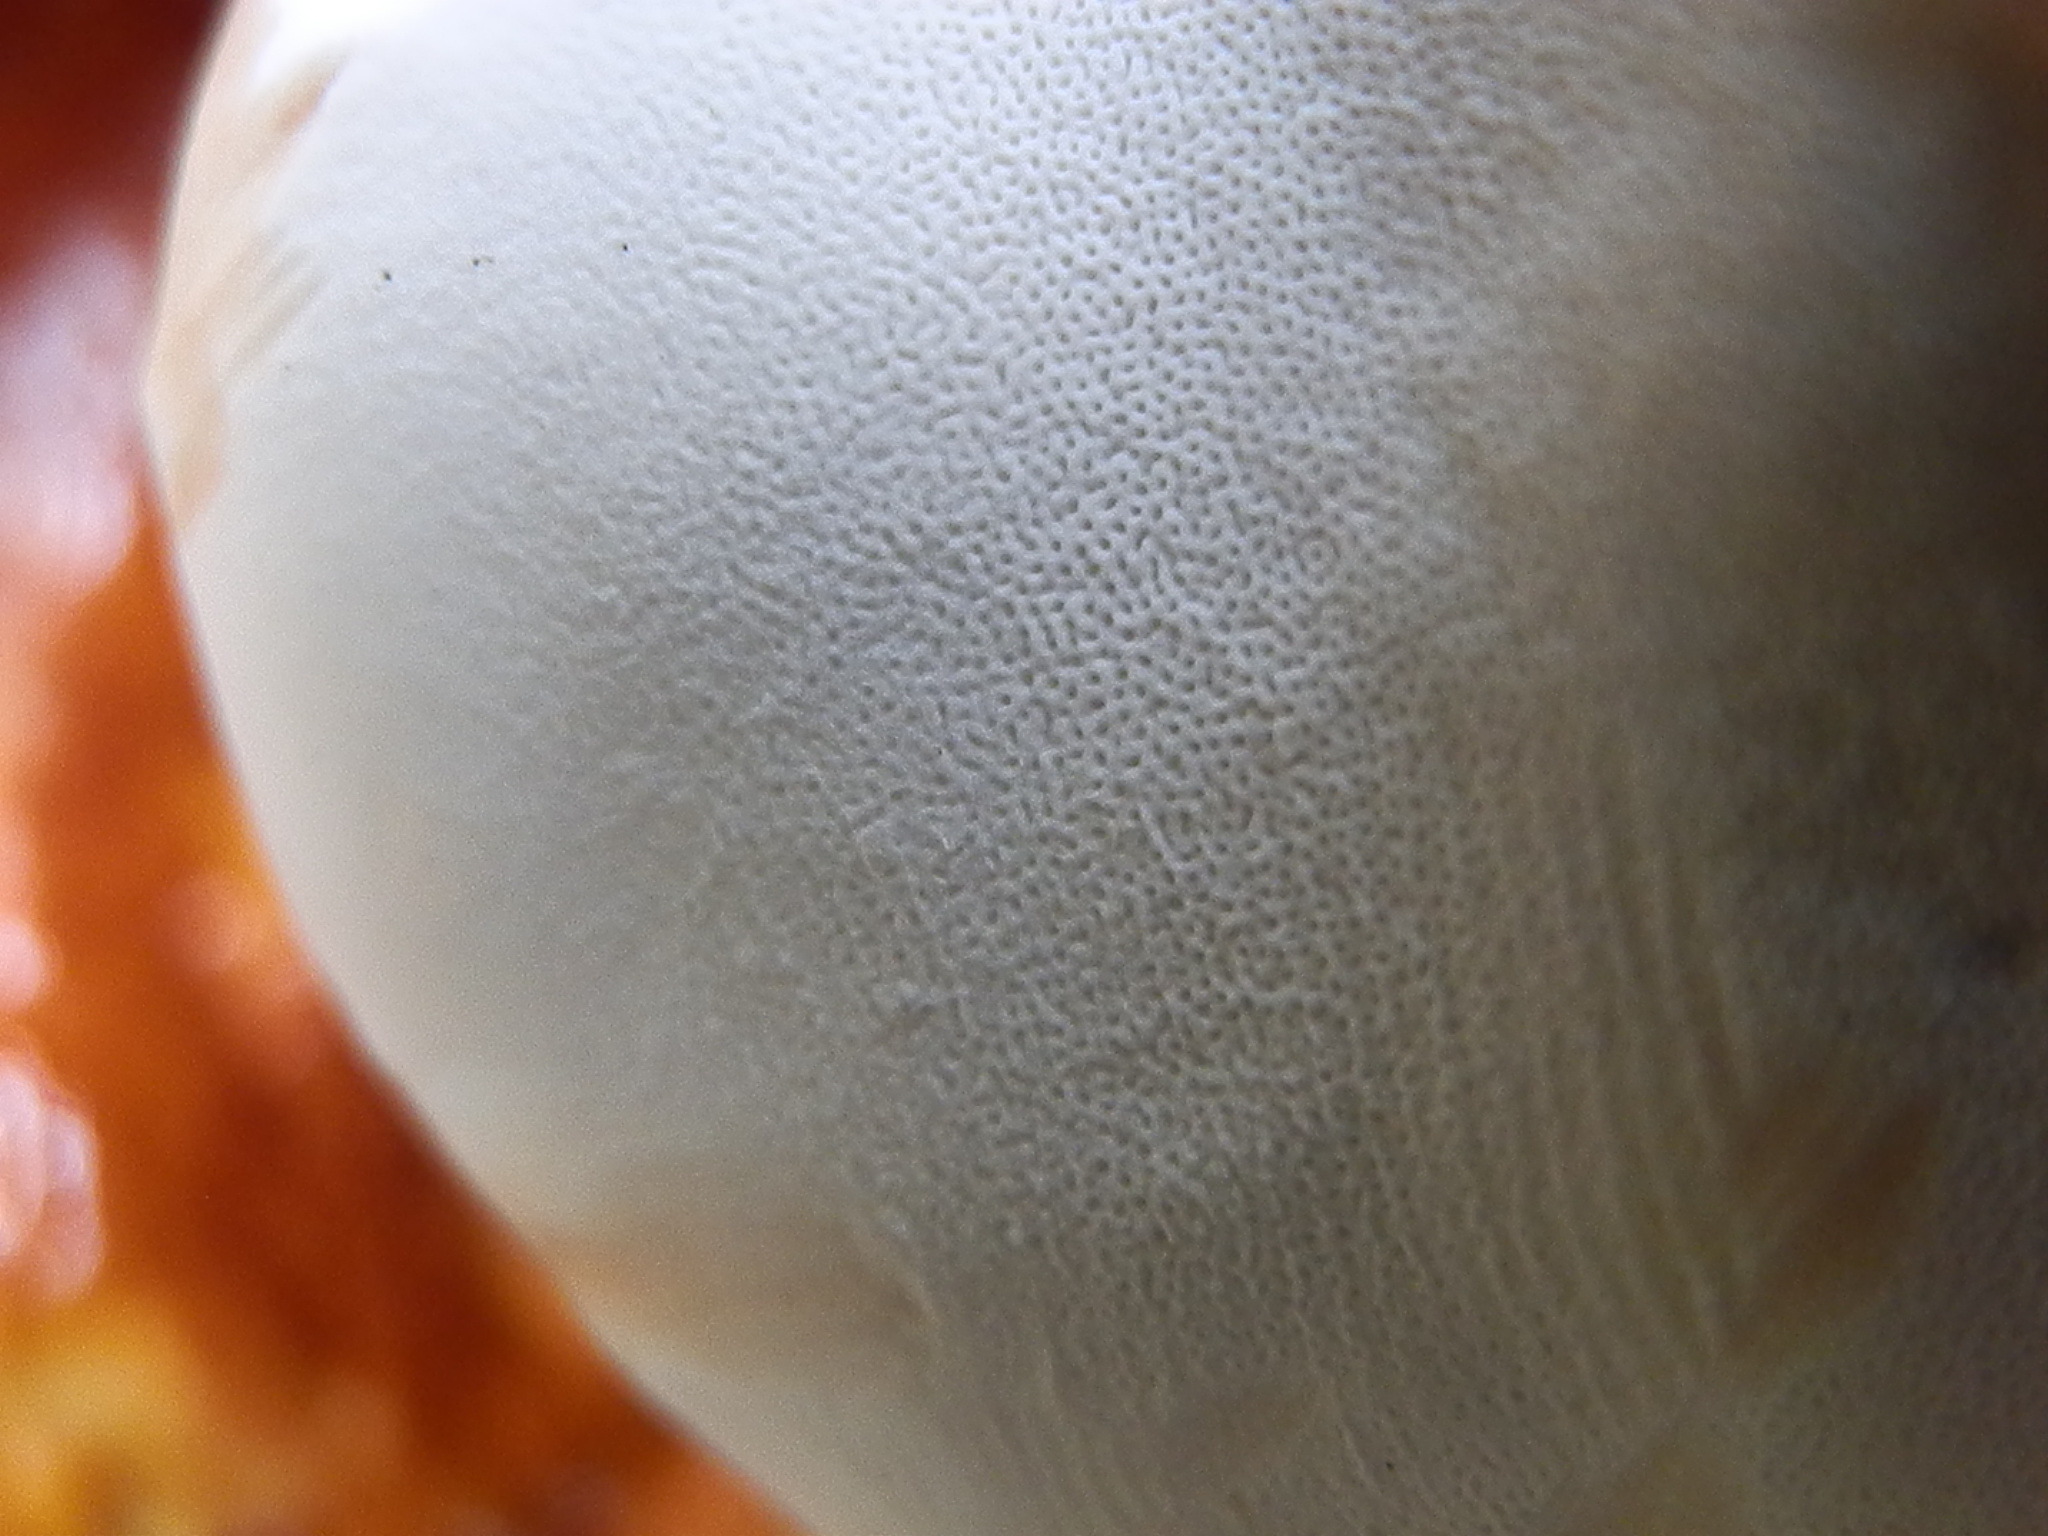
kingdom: Fungi
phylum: Basidiomycota
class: Agaricomycetes
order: Polyporales
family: Polyporaceae
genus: Ganoderma
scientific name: Ganoderma tsugae
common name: Hemlock varnish shelf
